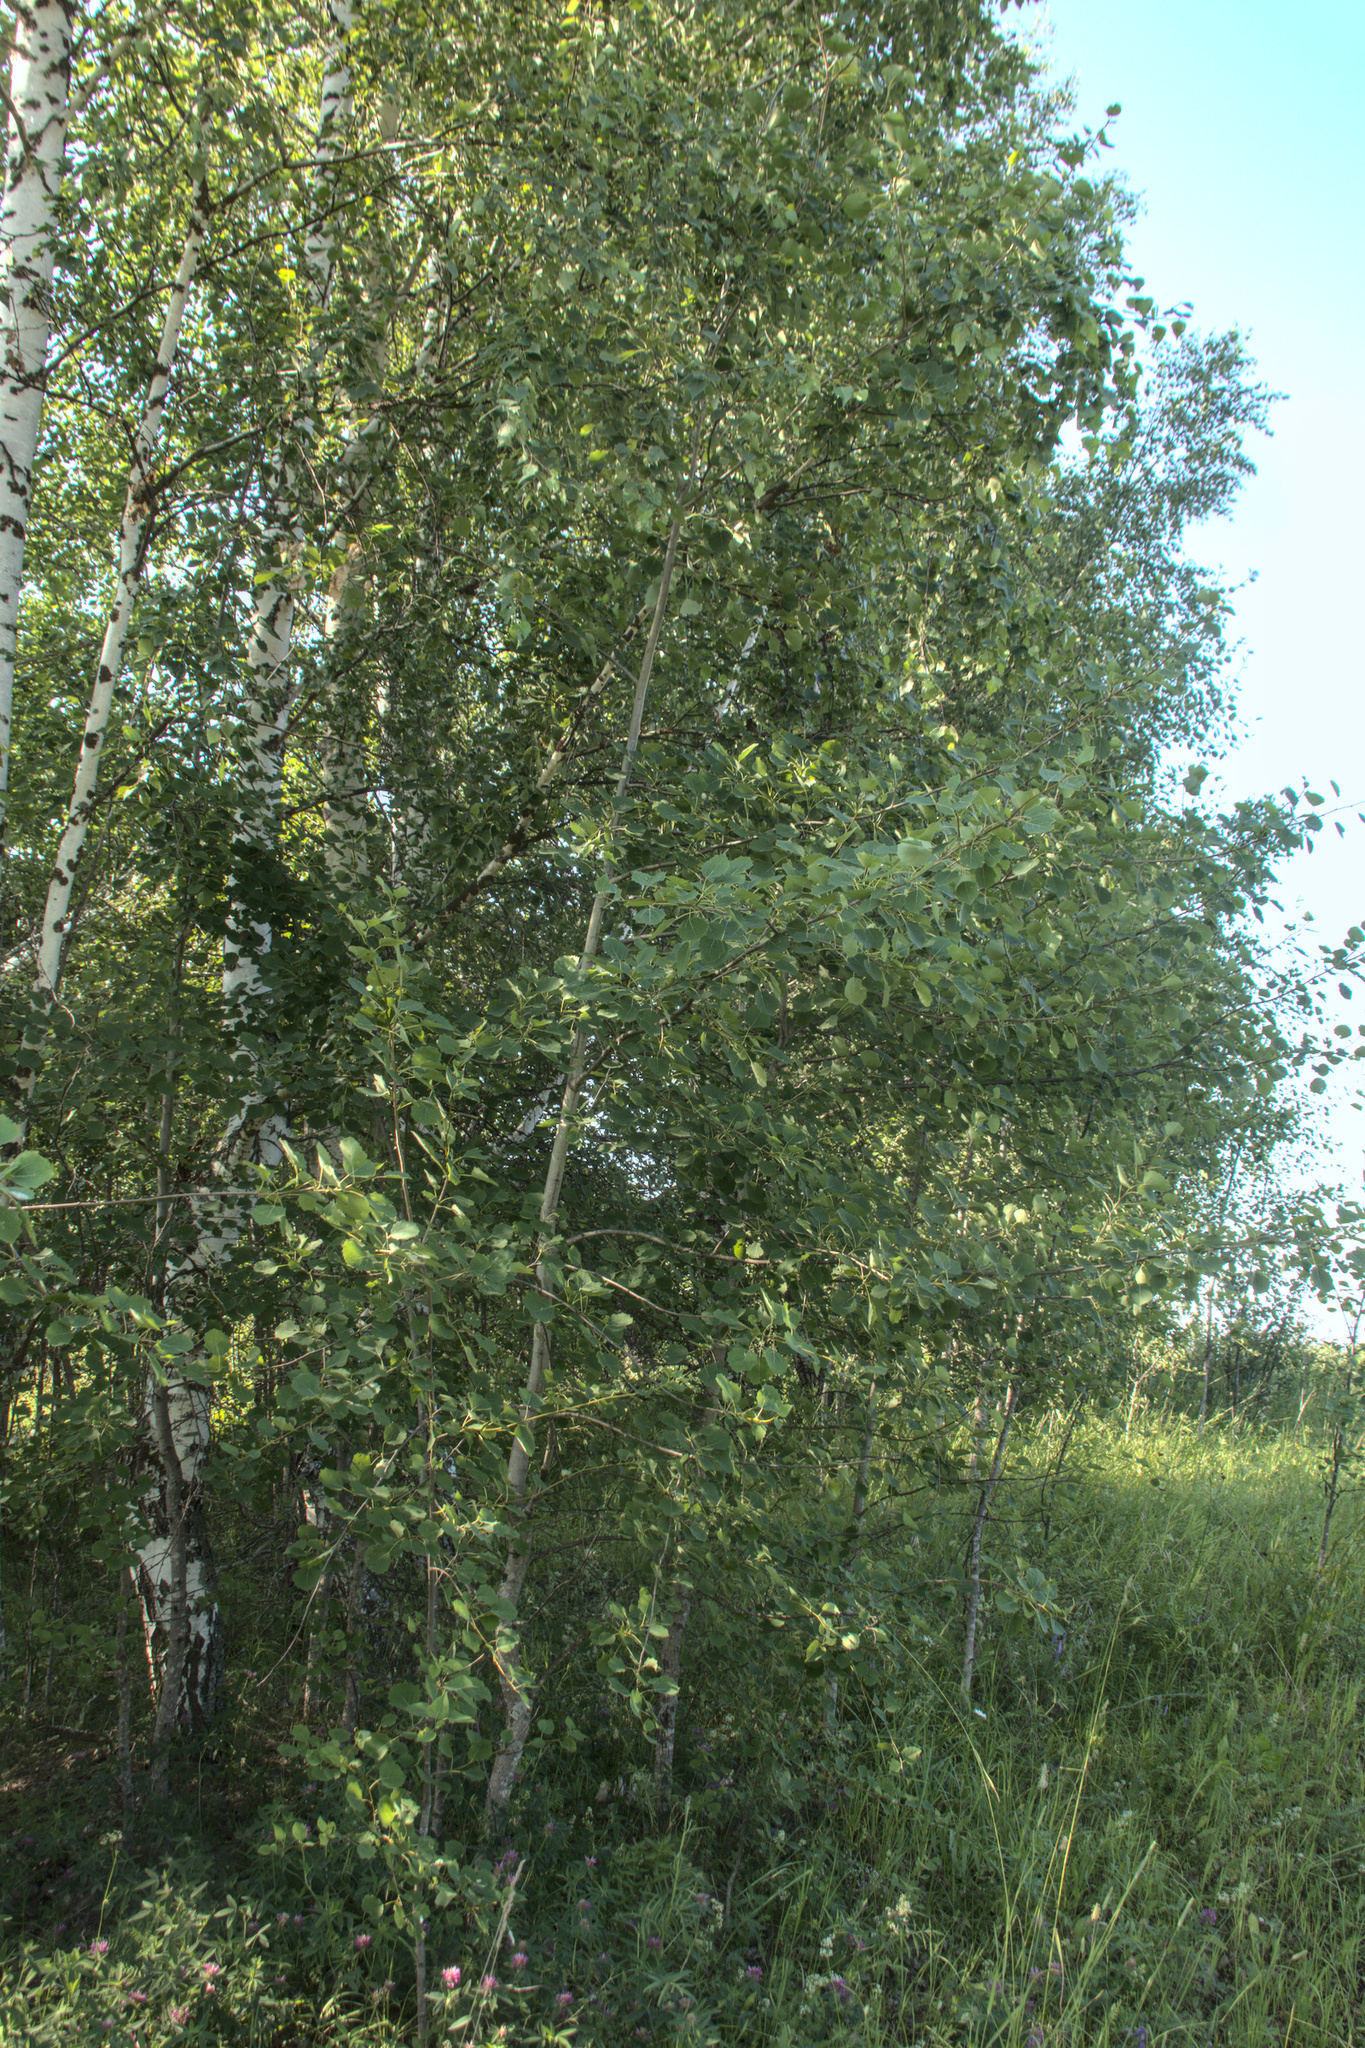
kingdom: Plantae
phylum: Tracheophyta
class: Magnoliopsida
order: Malpighiales
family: Salicaceae
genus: Populus
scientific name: Populus tremula
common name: European aspen
